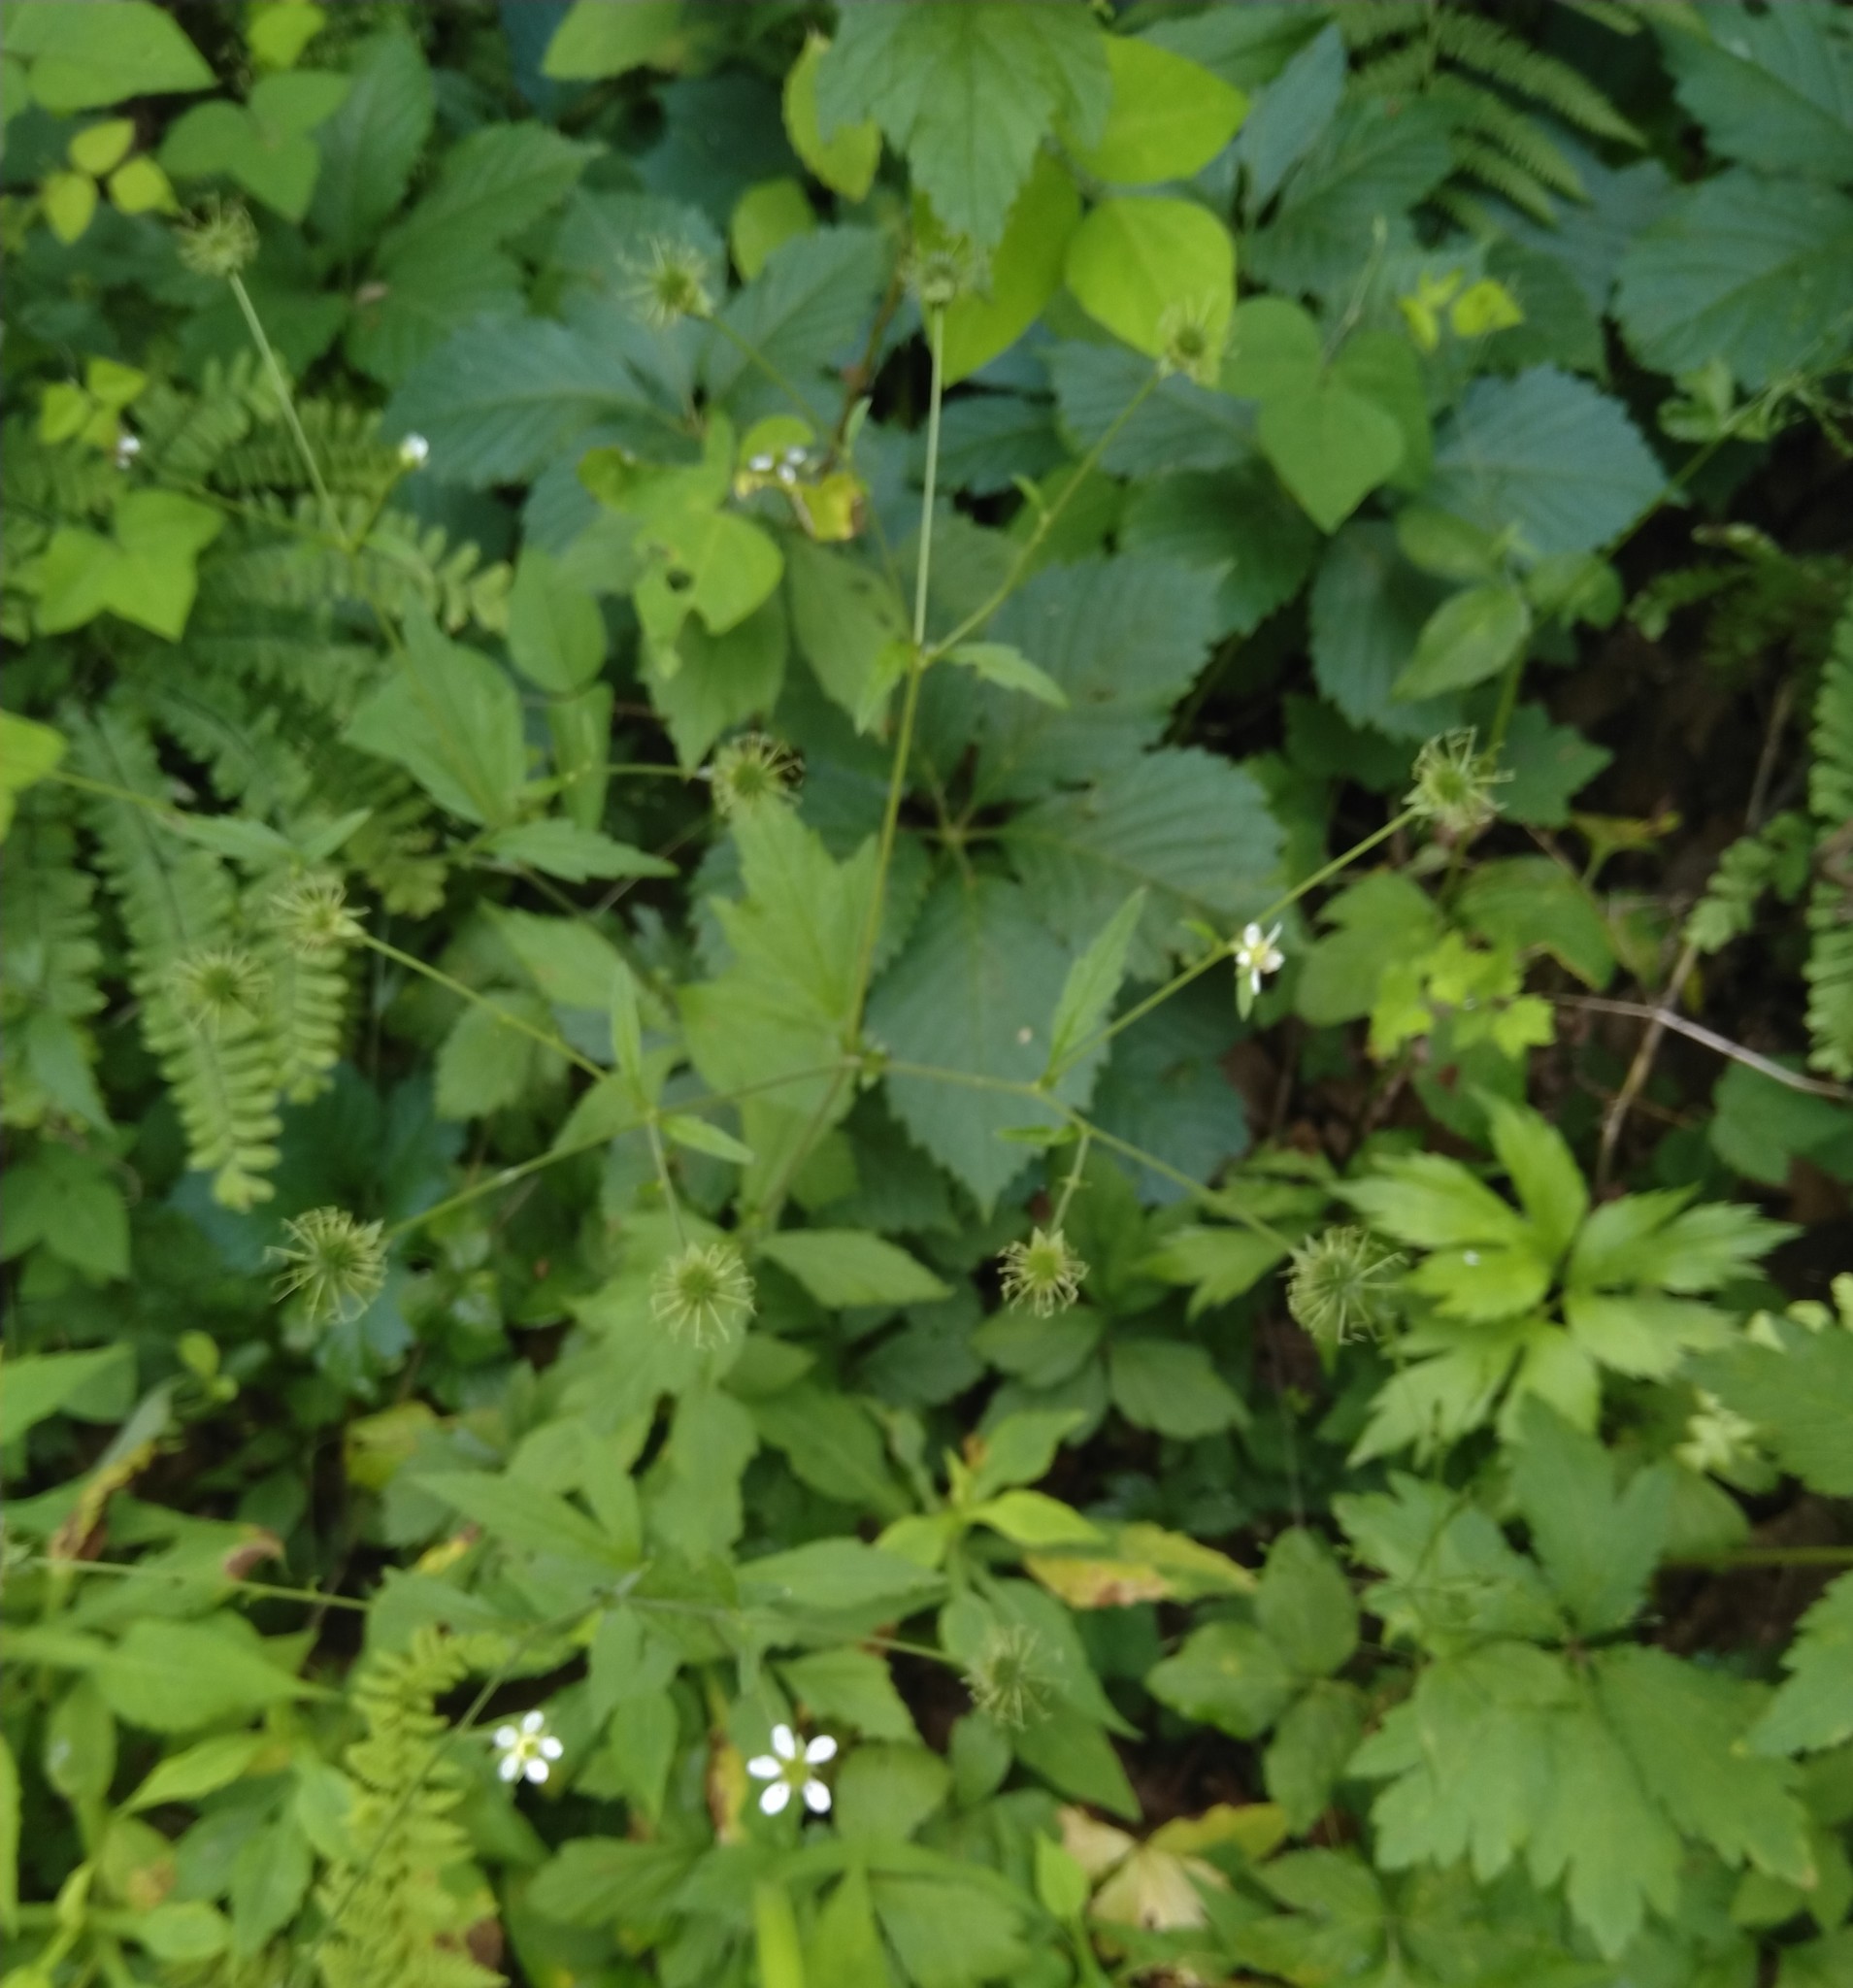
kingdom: Plantae
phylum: Tracheophyta
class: Magnoliopsida
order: Rosales
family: Rosaceae
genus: Geum
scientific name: Geum canadense
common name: White avens
